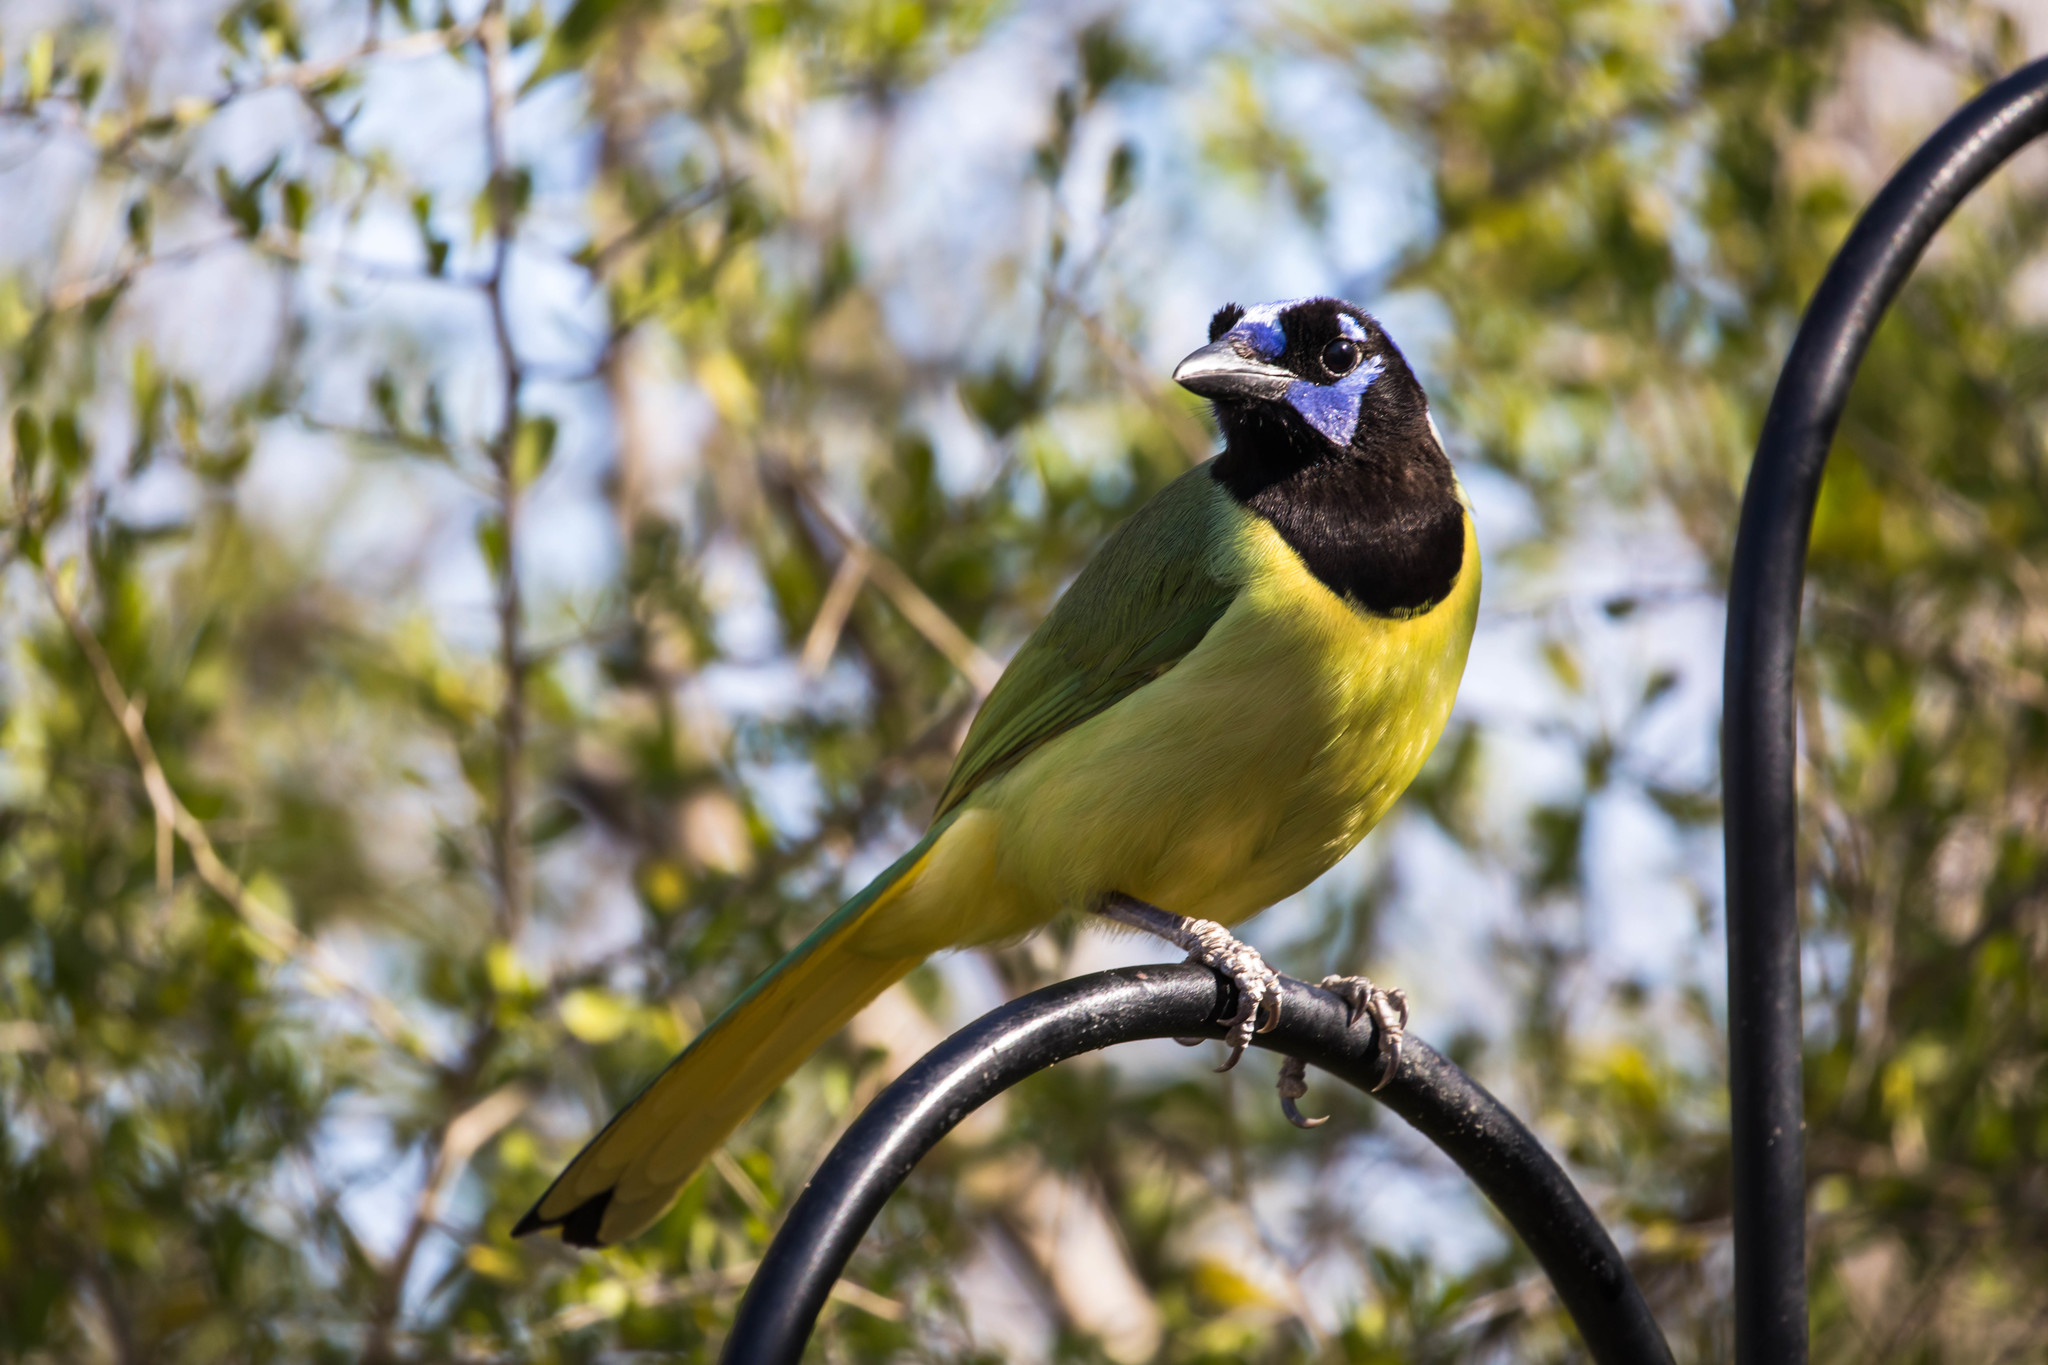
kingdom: Animalia
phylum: Chordata
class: Aves
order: Passeriformes
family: Corvidae
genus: Cyanocorax
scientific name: Cyanocorax yncas
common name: Green jay
